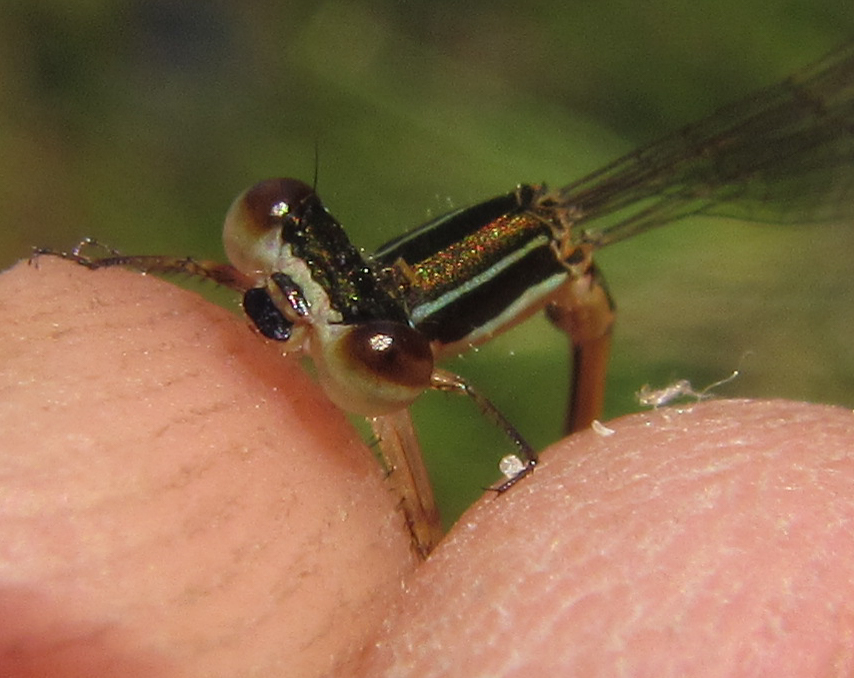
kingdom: Animalia
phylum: Arthropoda
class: Insecta
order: Odonata
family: Coenagrionidae
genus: Agriocnemis
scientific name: Agriocnemis ruberrima
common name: Orange wisp
